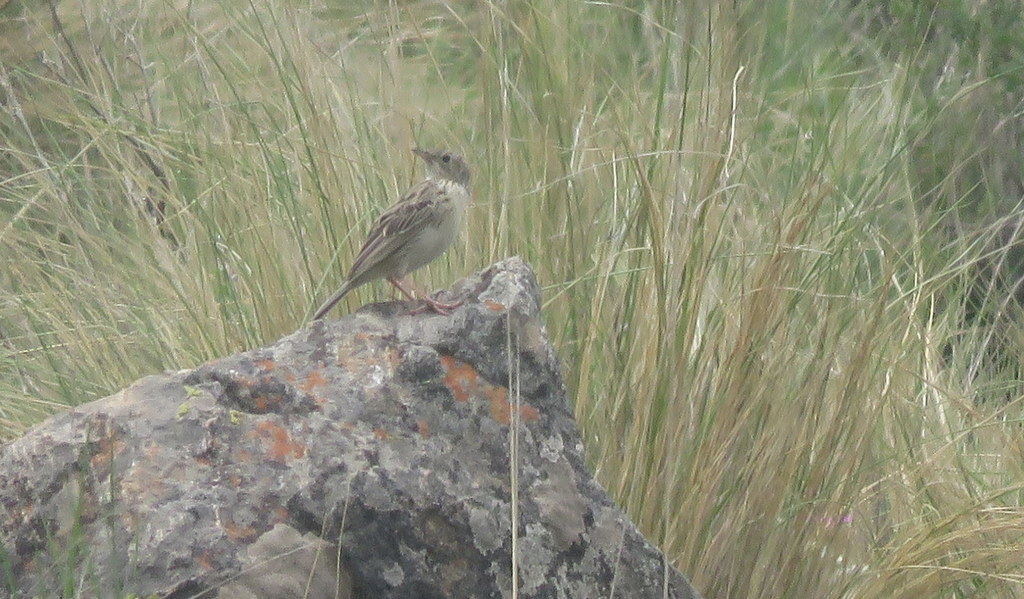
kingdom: Animalia
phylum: Chordata
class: Aves
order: Passeriformes
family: Motacillidae
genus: Anthus
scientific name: Anthus hellmayri
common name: Hellmayr's pipit
